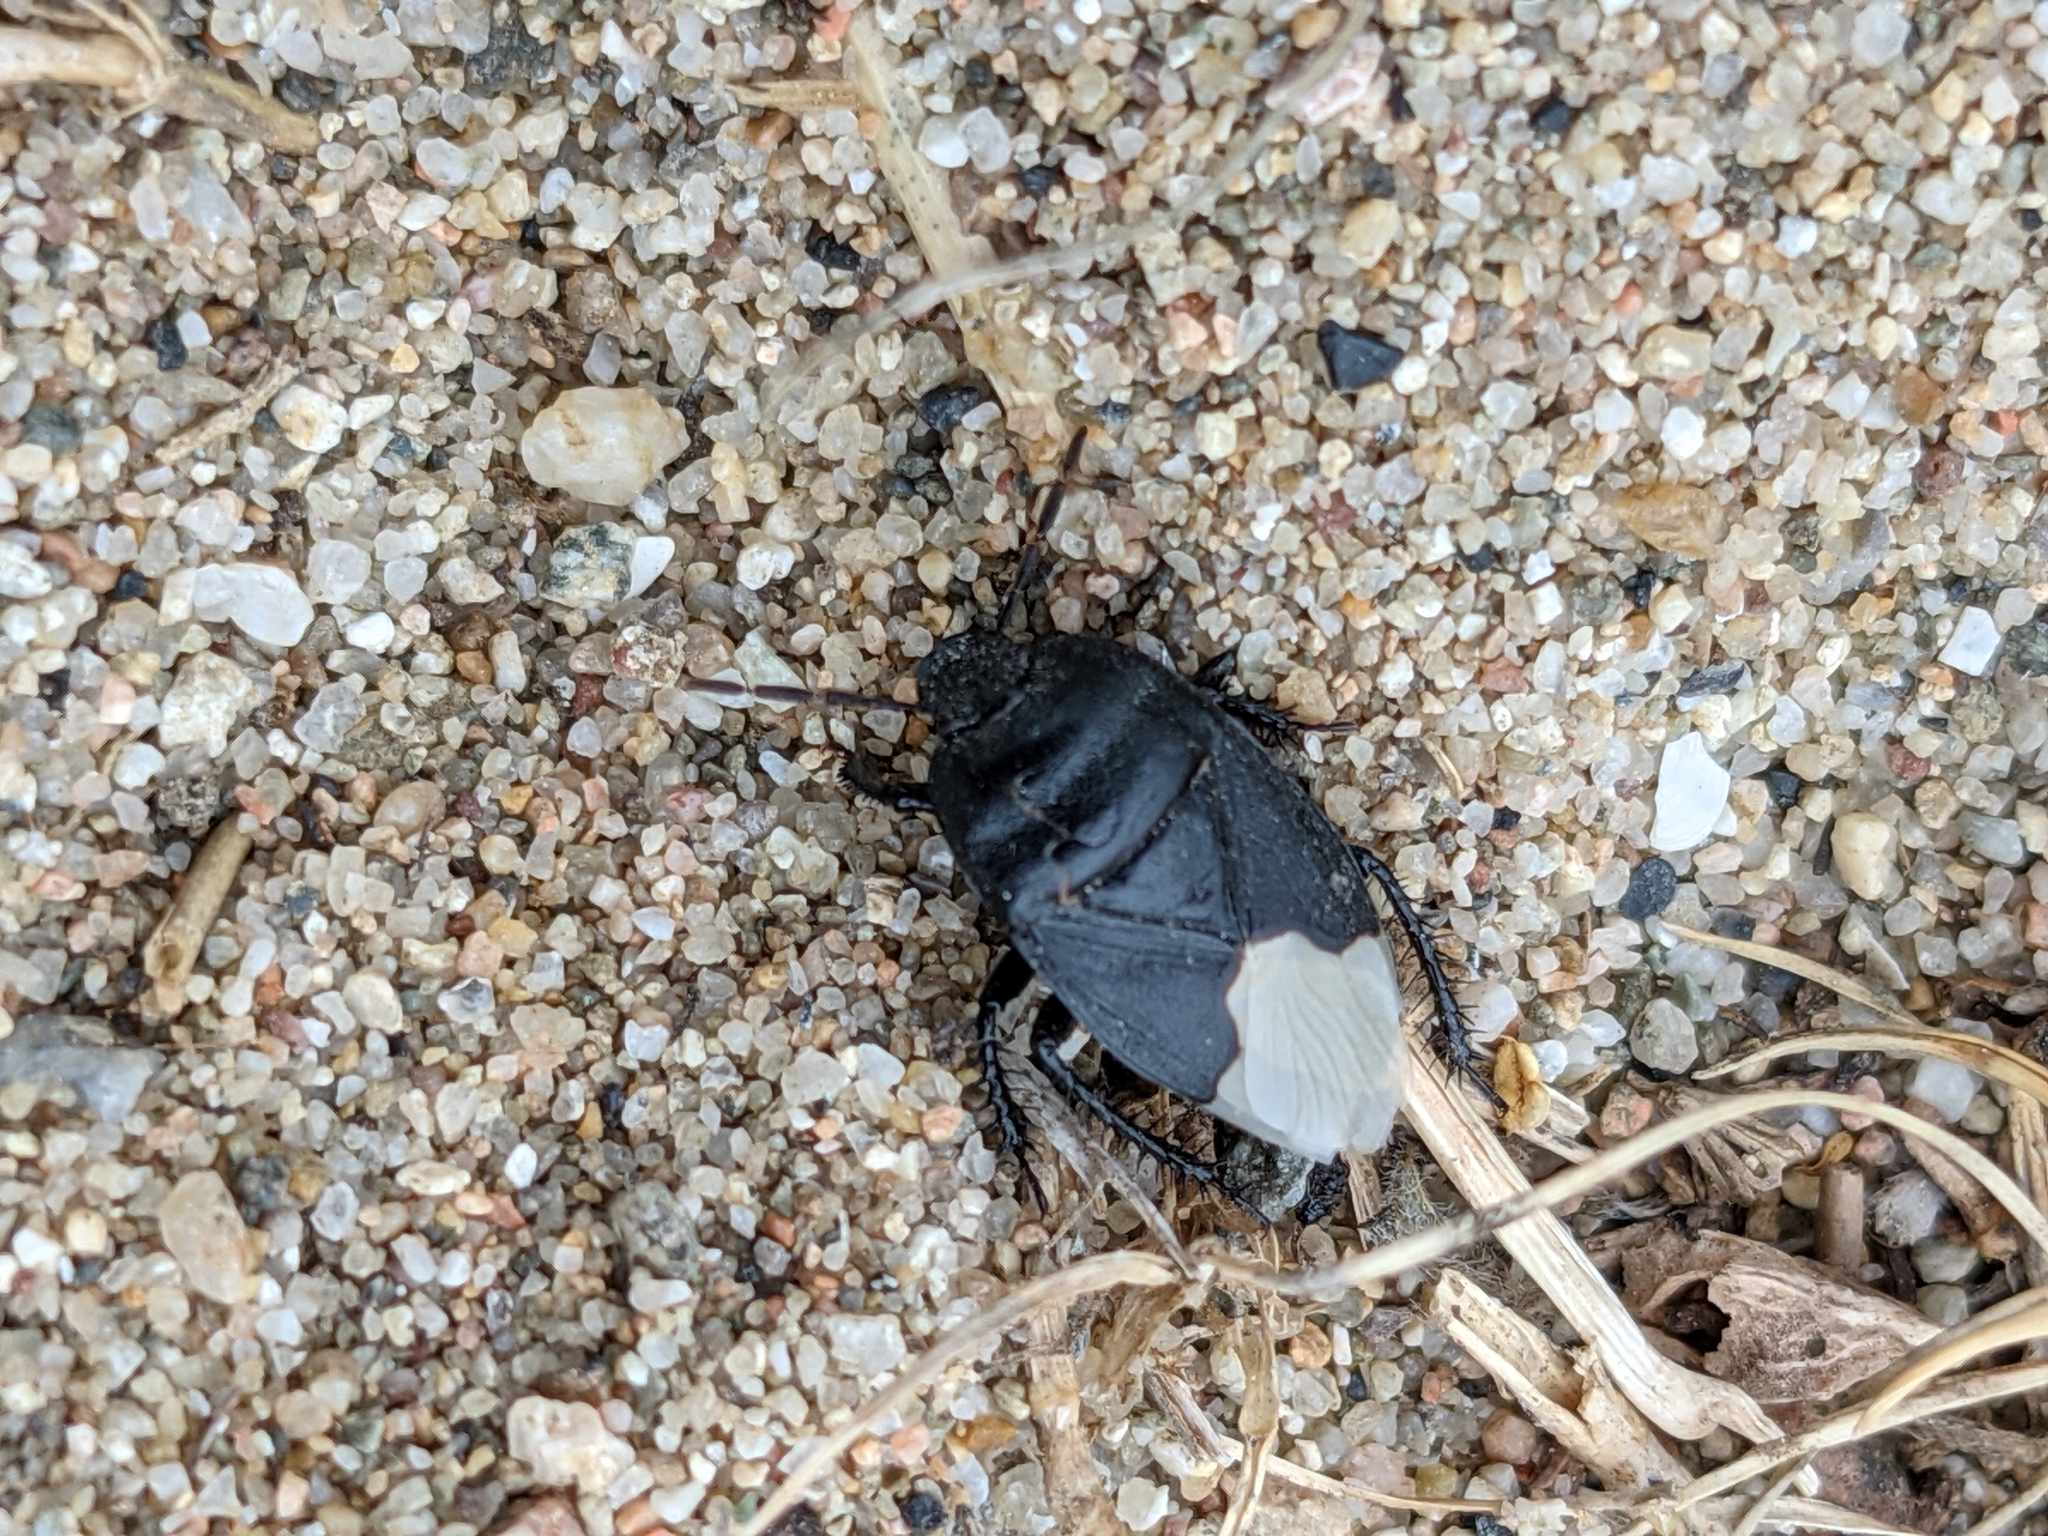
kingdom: Animalia
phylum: Arthropoda
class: Insecta
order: Hemiptera
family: Cydnidae
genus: Cydnus
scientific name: Cydnus aterrimus
